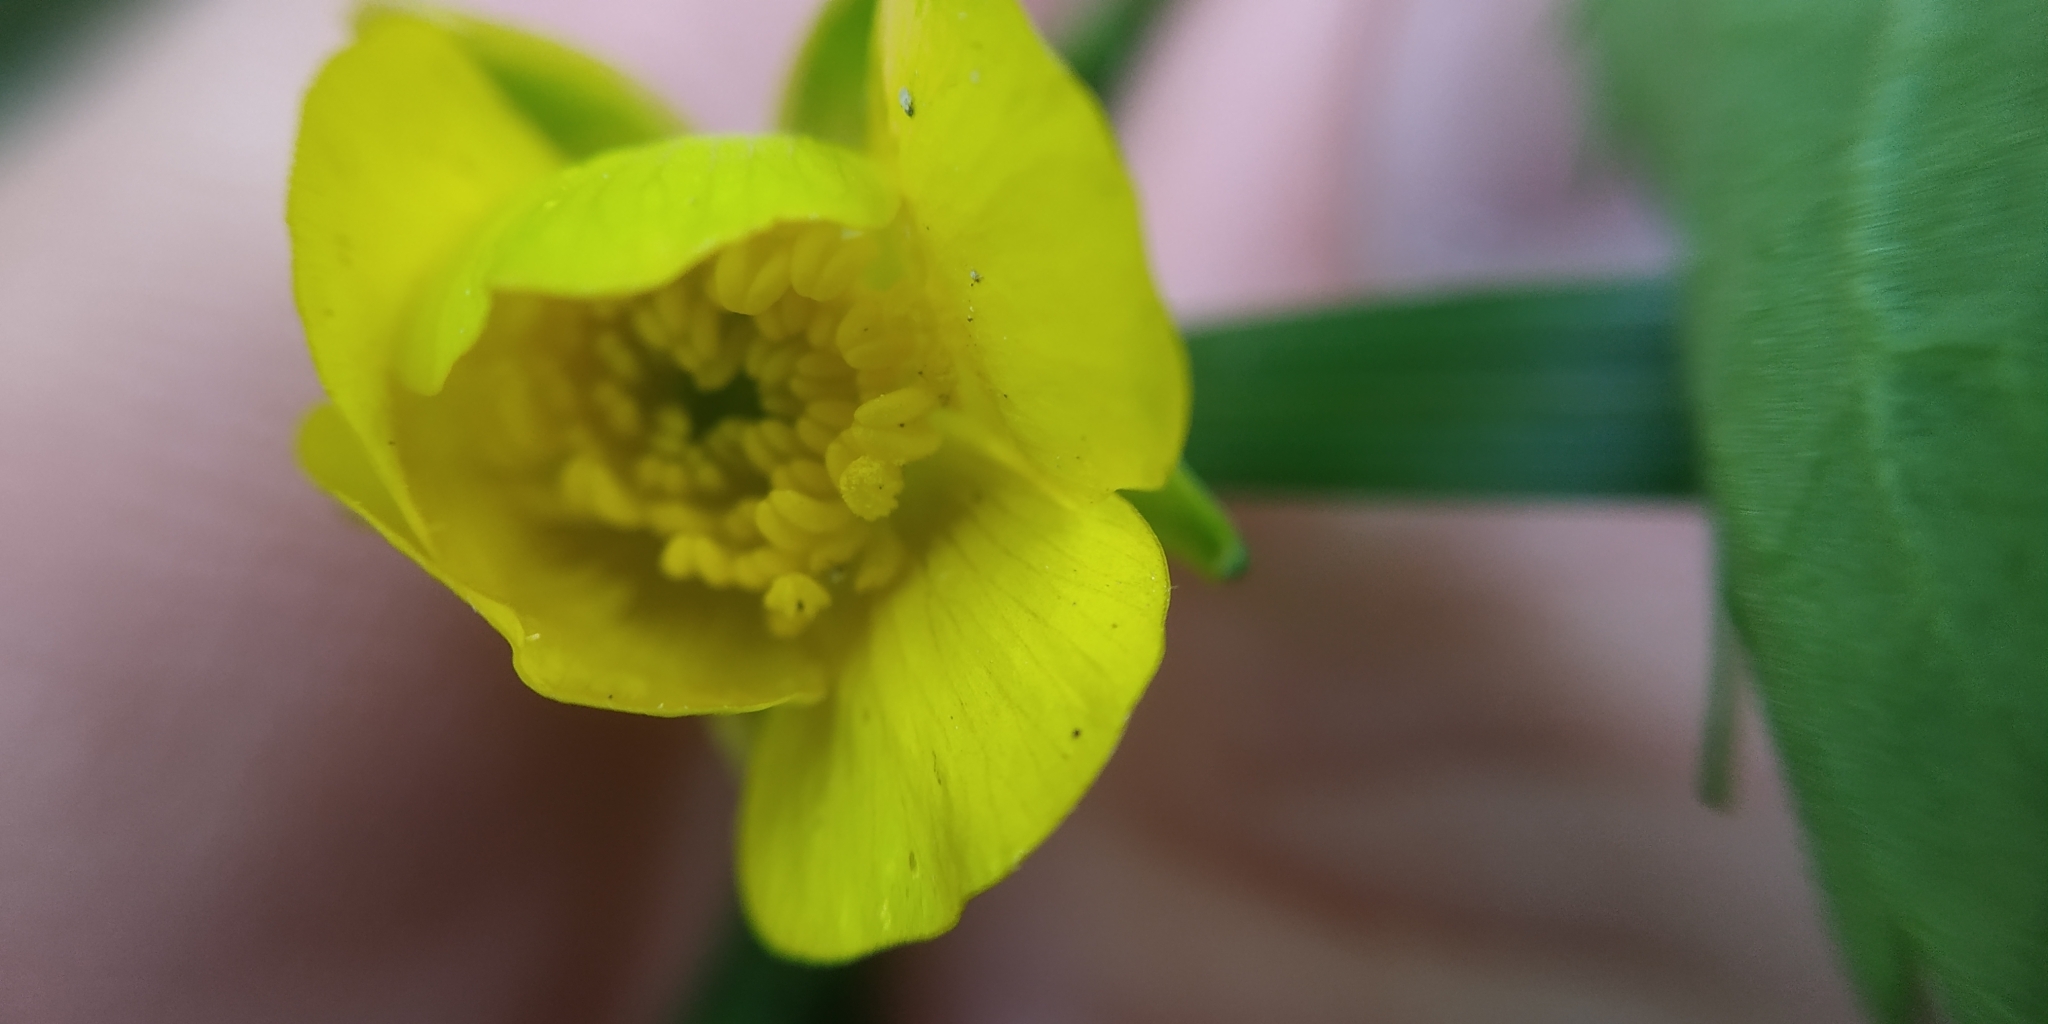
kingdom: Plantae
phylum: Tracheophyta
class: Magnoliopsida
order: Ranunculales
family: Ranunculaceae
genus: Ranunculus
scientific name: Ranunculus repens
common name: Creeping buttercup
